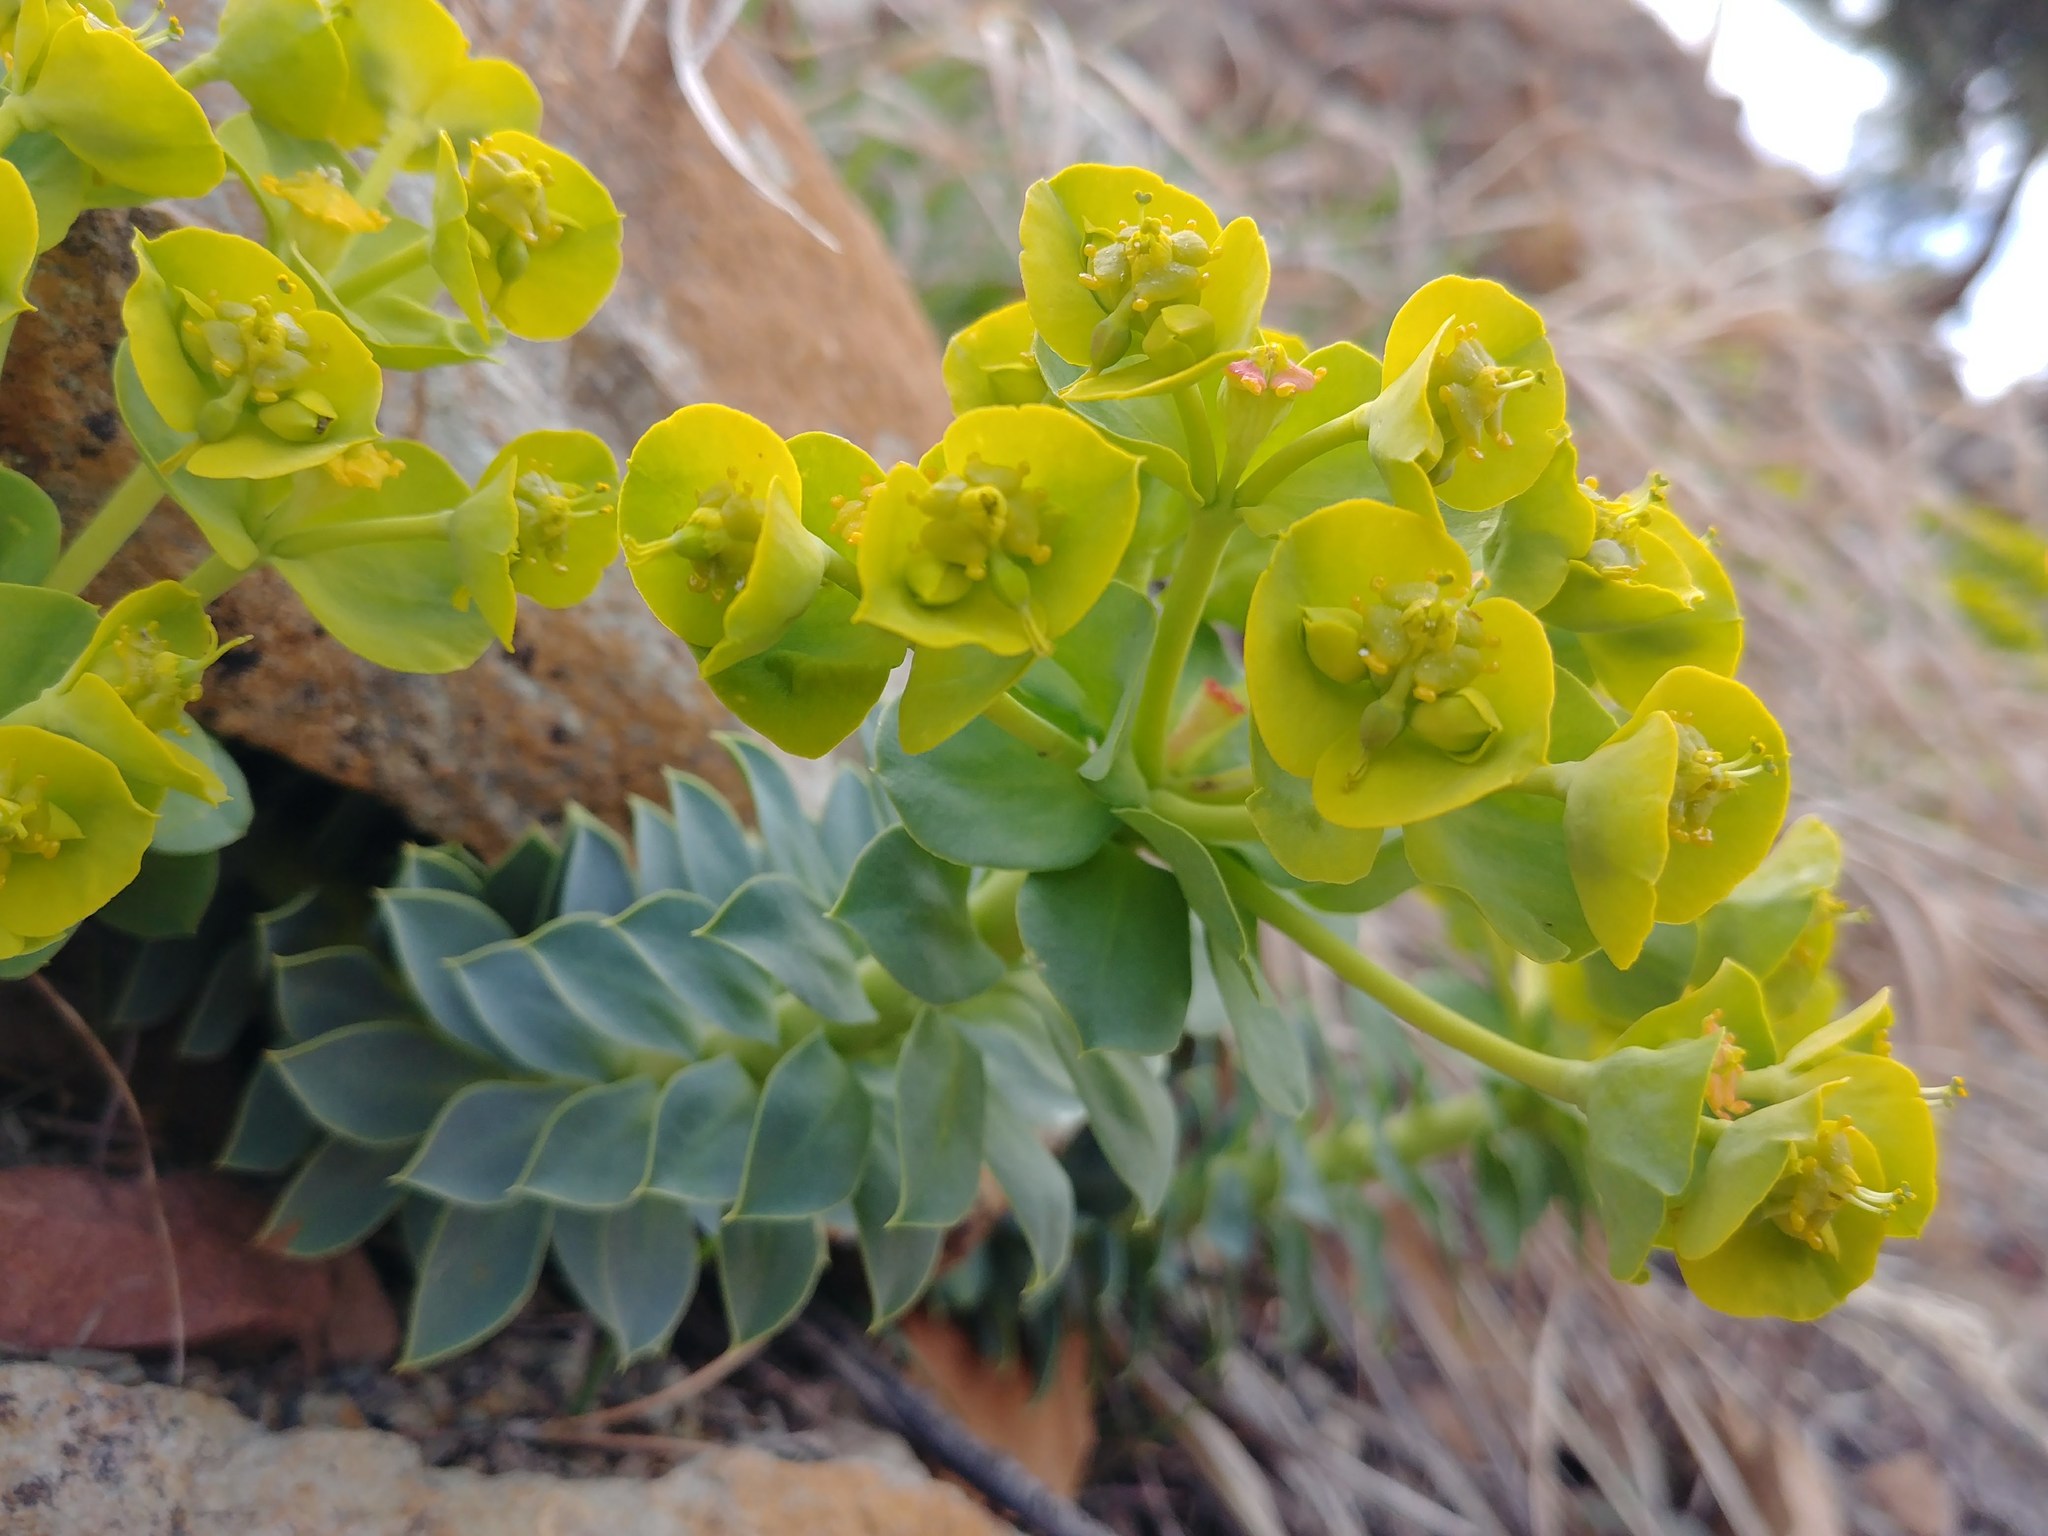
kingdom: Plantae
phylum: Tracheophyta
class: Magnoliopsida
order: Malpighiales
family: Euphorbiaceae
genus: Euphorbia
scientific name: Euphorbia myrsinites
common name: Myrtle spurge
